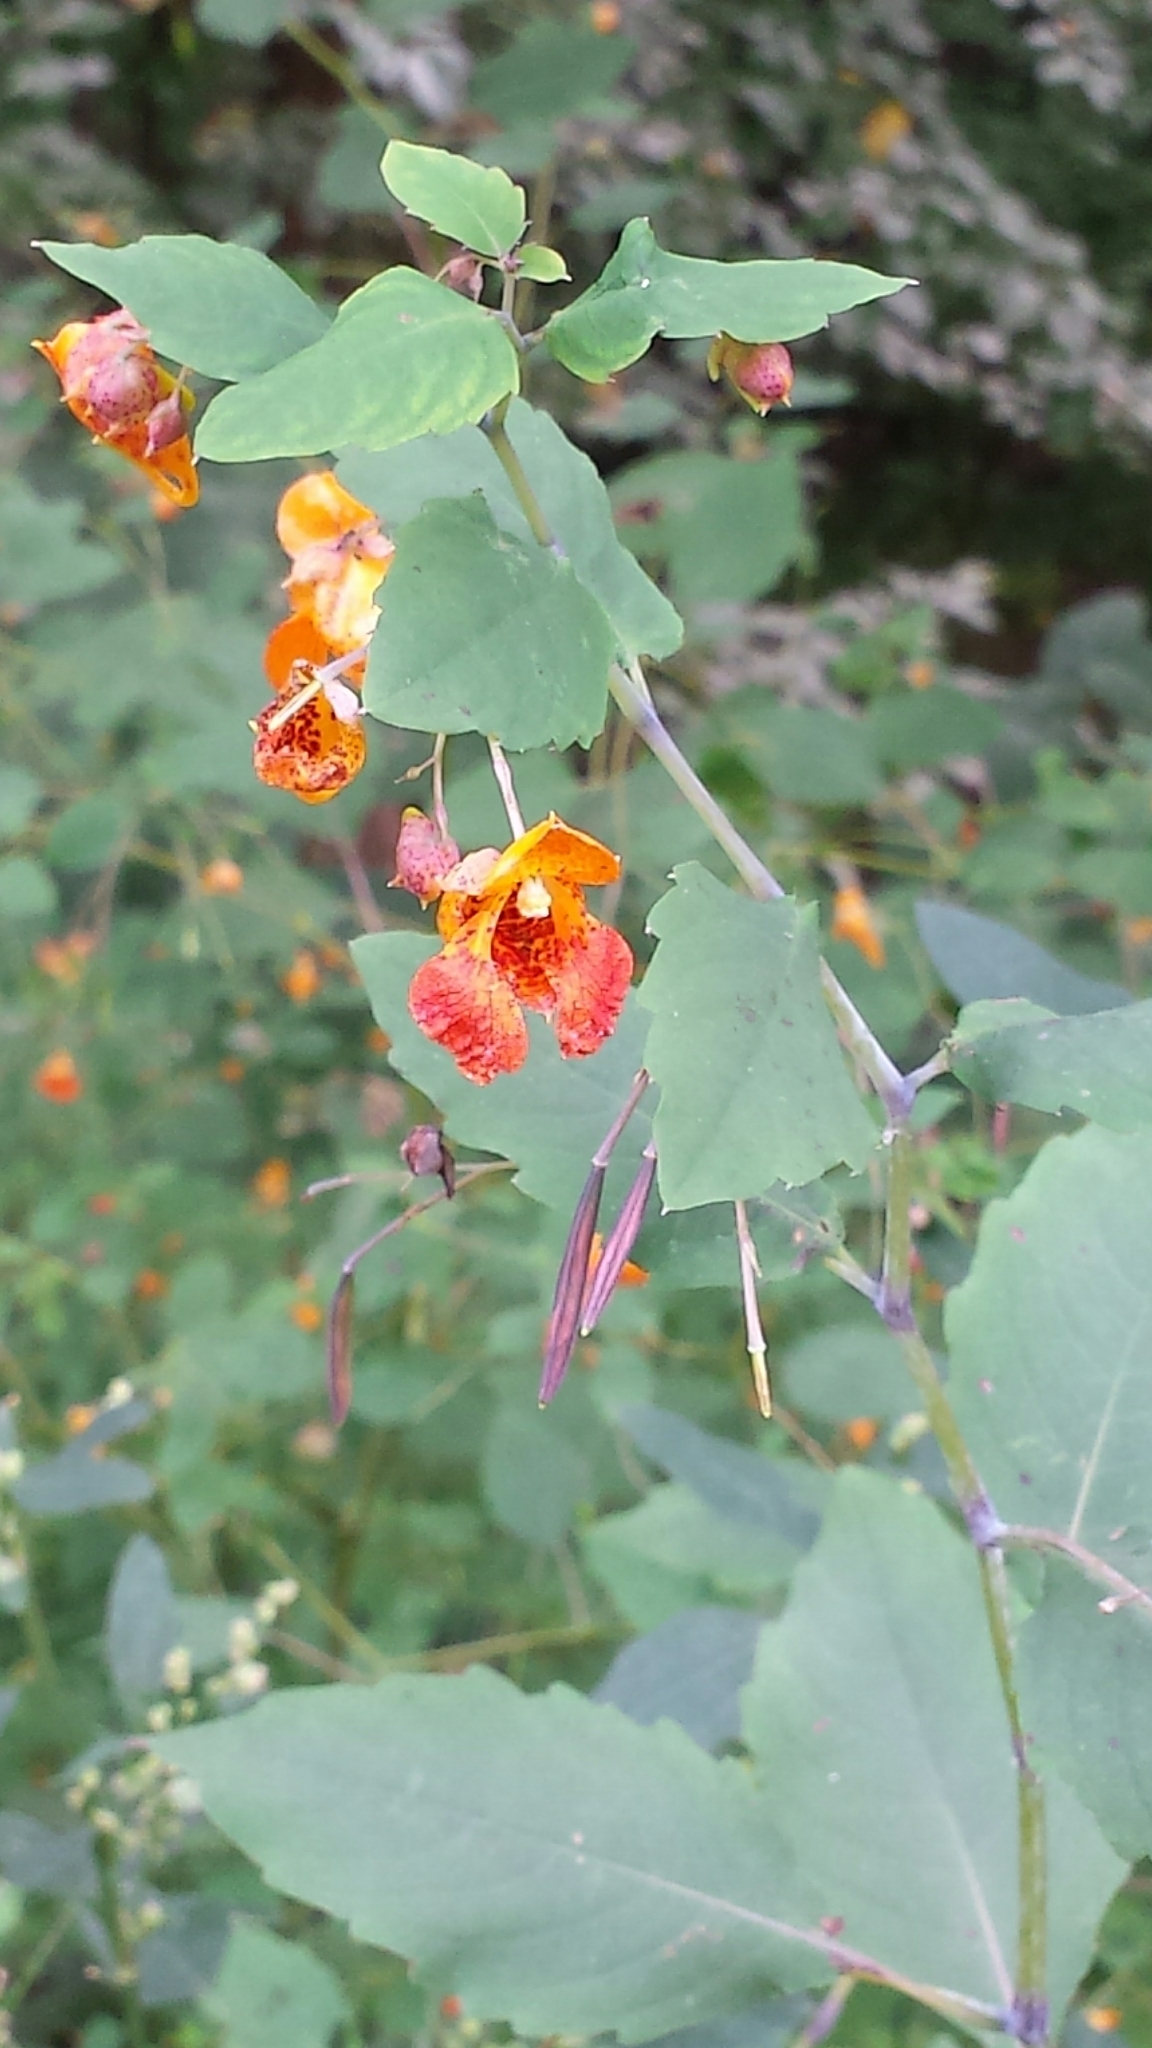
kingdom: Plantae
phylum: Tracheophyta
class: Magnoliopsida
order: Ericales
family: Balsaminaceae
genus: Impatiens
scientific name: Impatiens capensis
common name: Orange balsam
